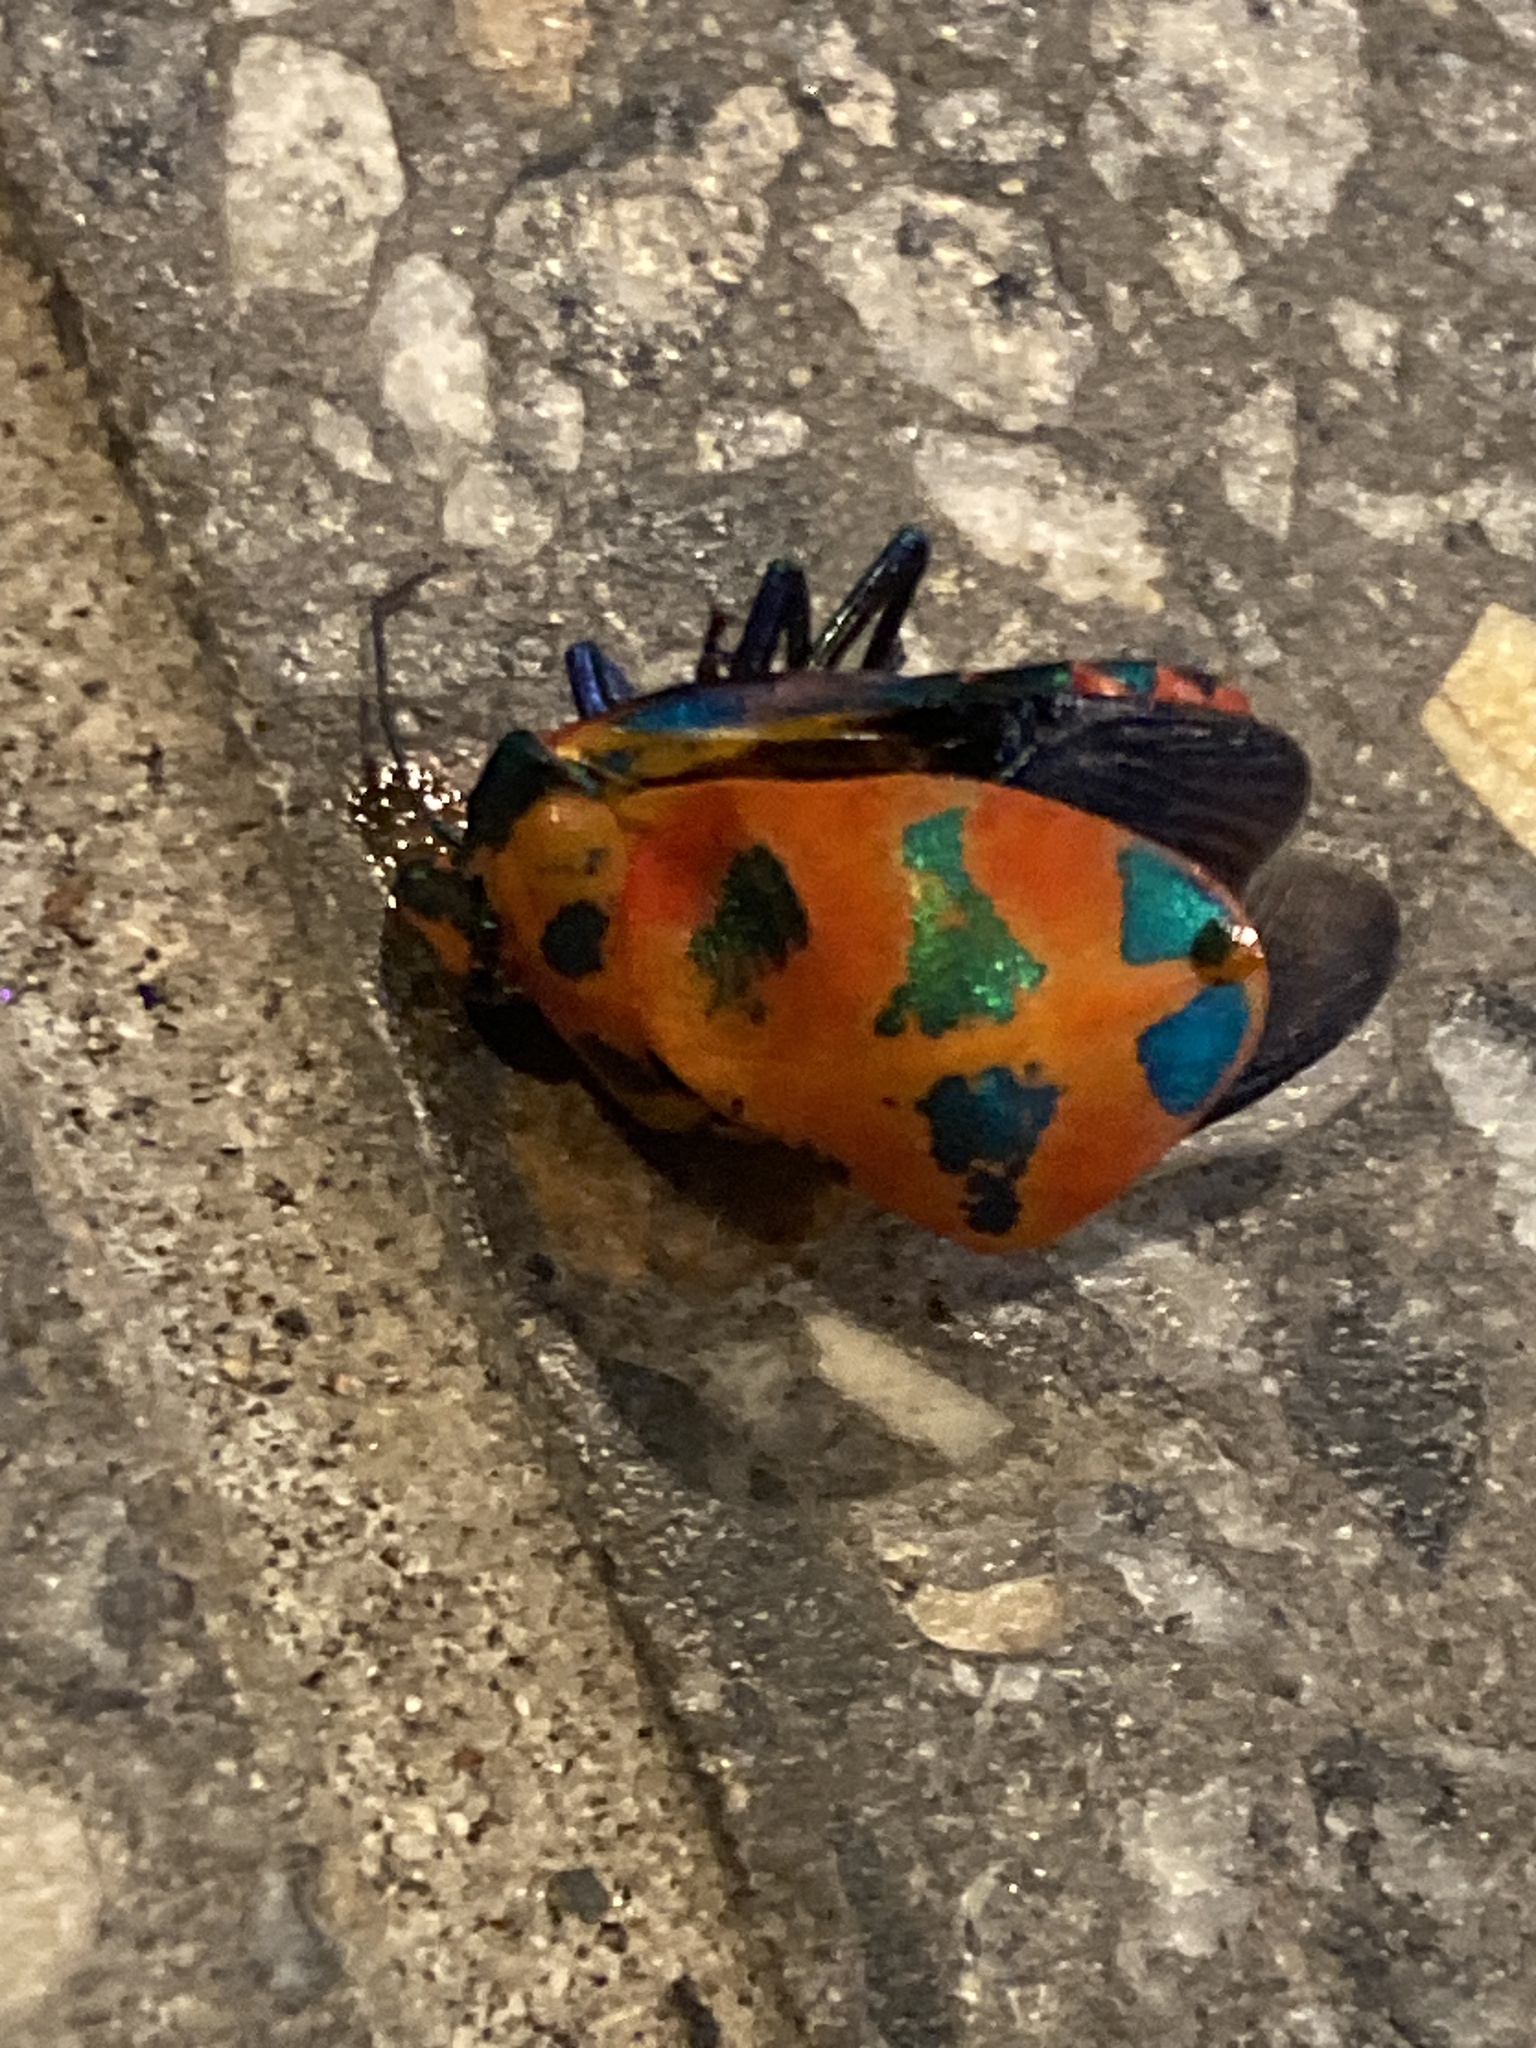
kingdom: Animalia
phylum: Arthropoda
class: Insecta
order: Hemiptera
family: Scutelleridae
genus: Tectocoris
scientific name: Tectocoris diophthalmus
